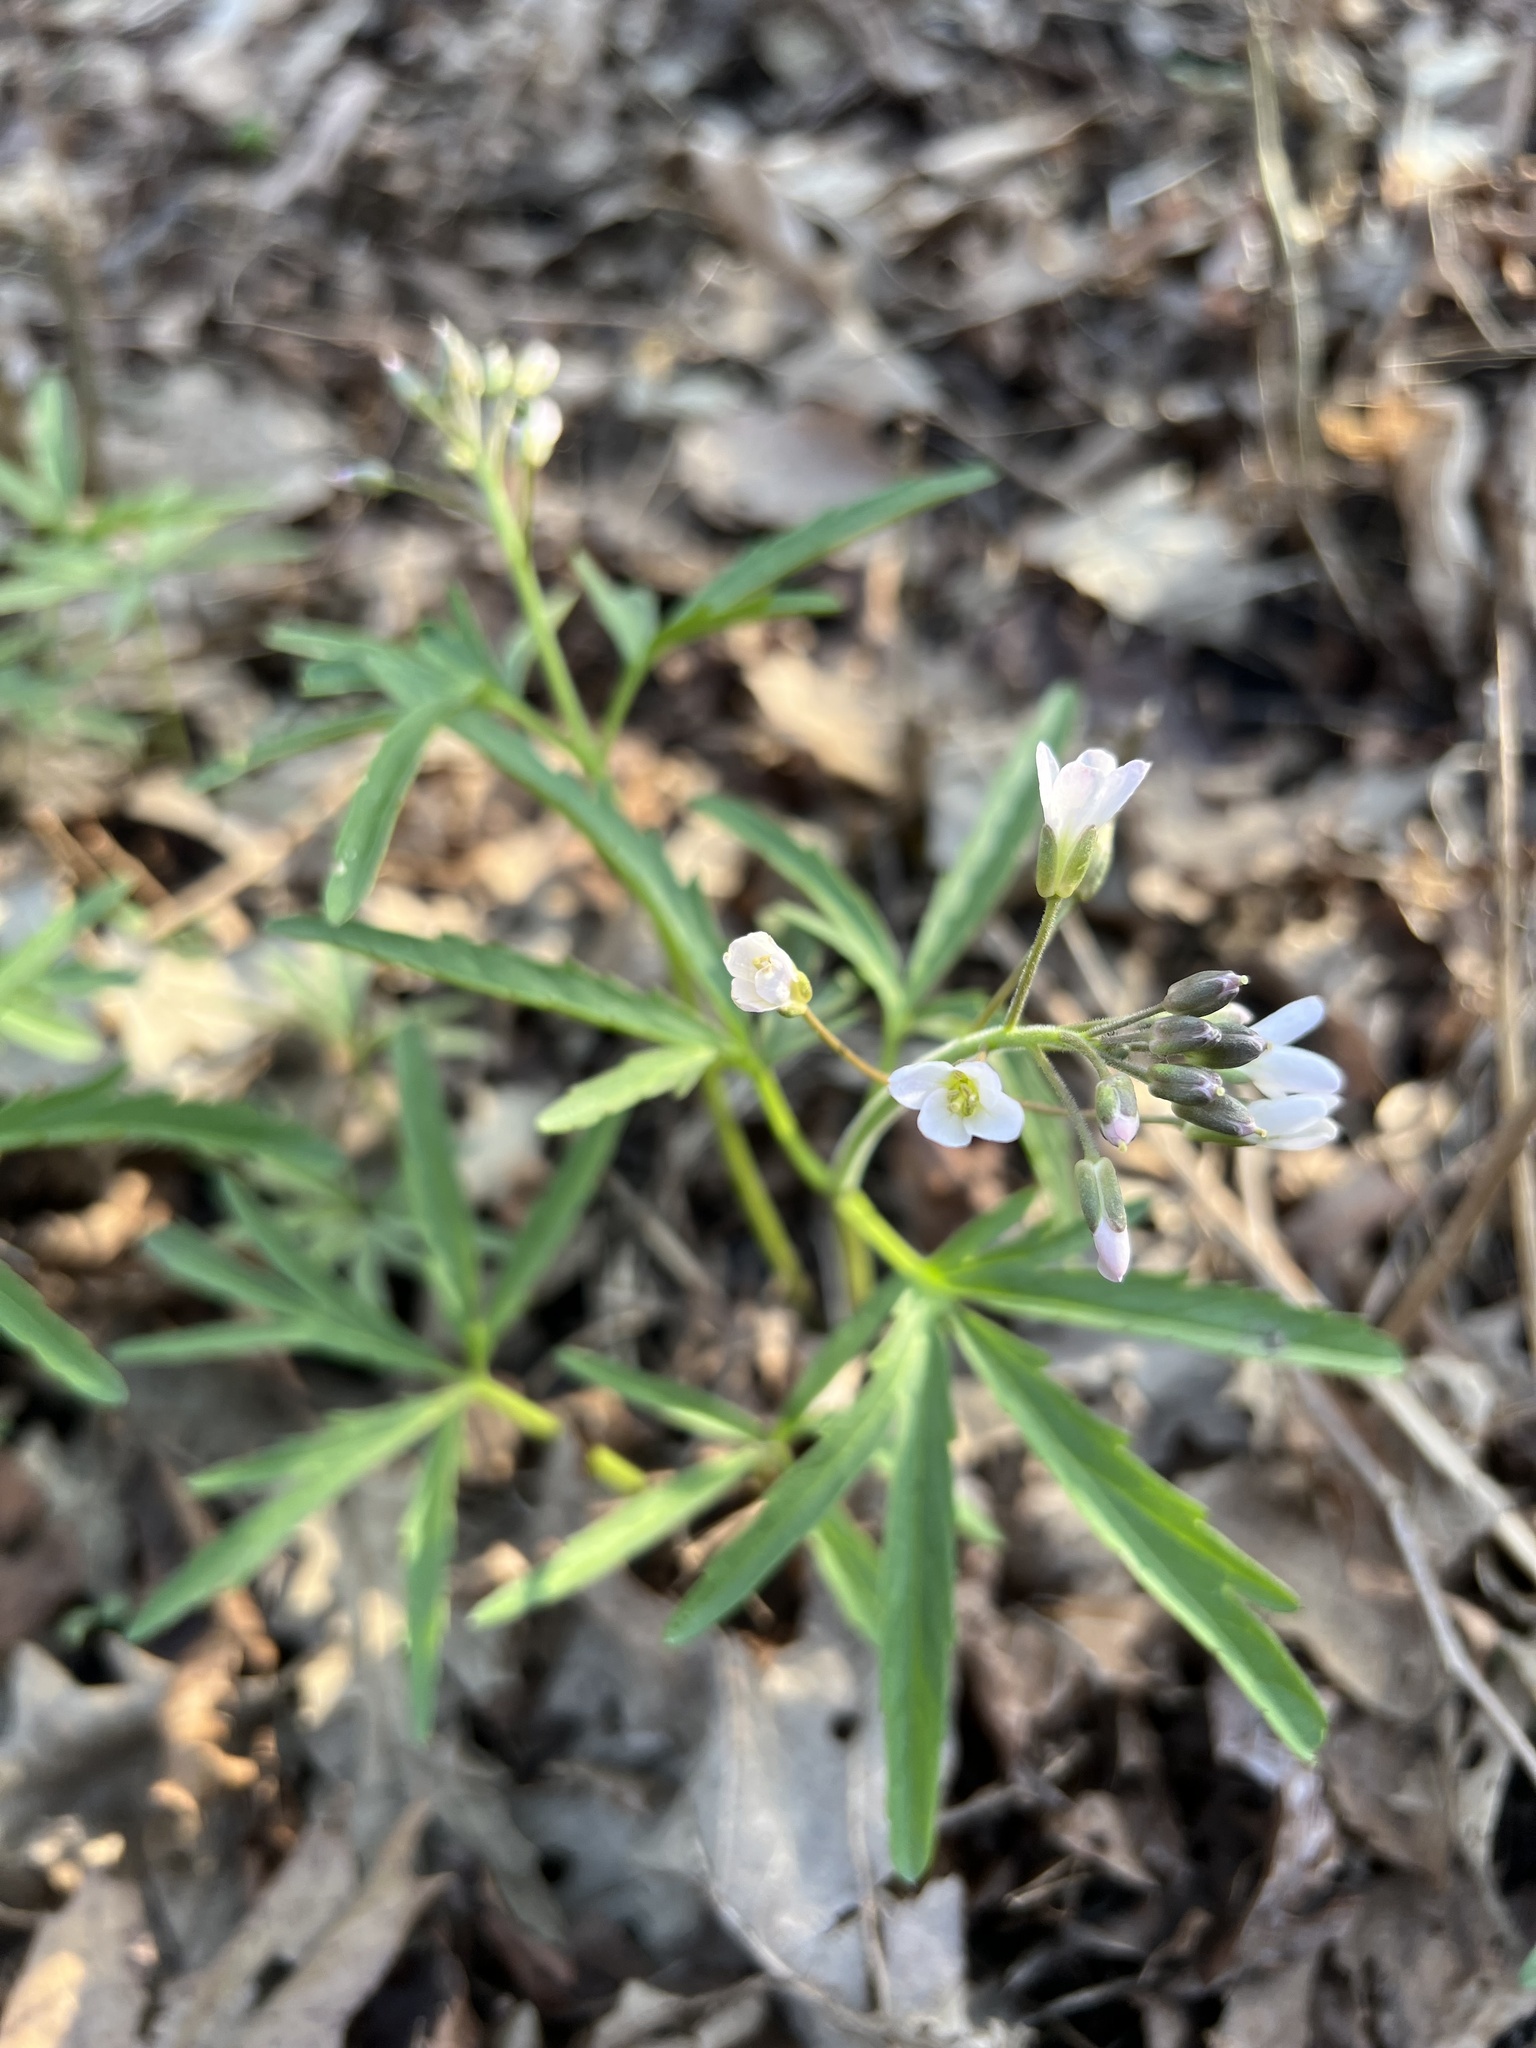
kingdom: Plantae
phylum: Tracheophyta
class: Magnoliopsida
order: Brassicales
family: Brassicaceae
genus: Cardamine
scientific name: Cardamine concatenata
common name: Cut-leaf toothcup
